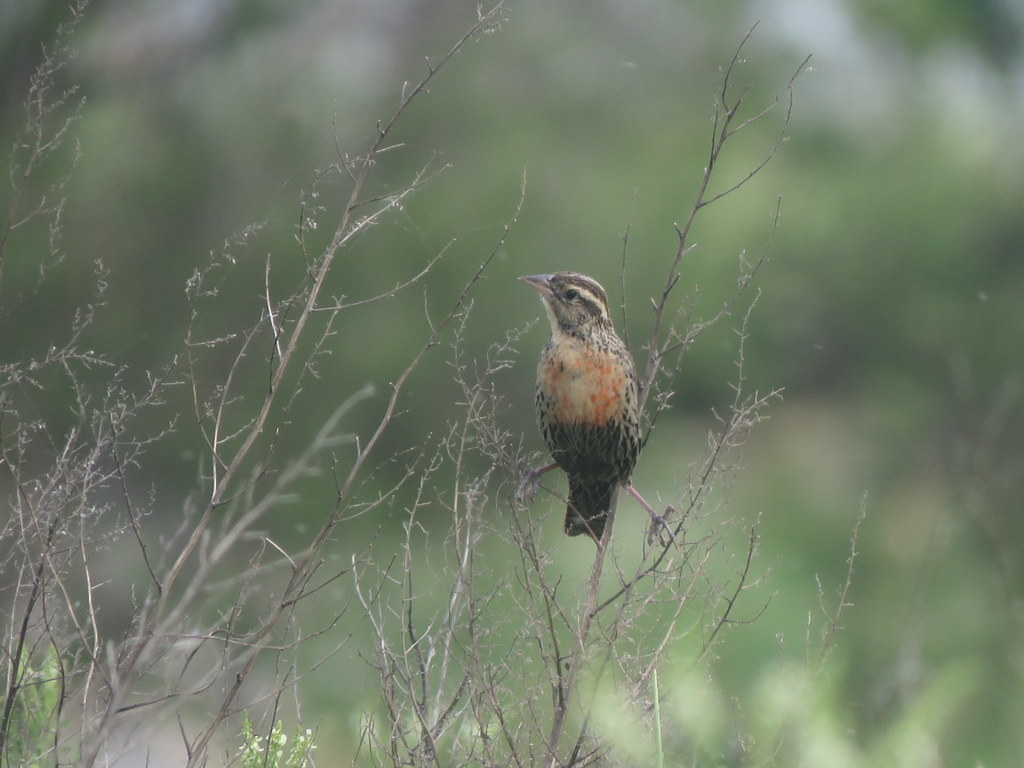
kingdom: Animalia
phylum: Chordata
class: Aves
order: Passeriformes
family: Icteridae
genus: Sturnella
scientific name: Sturnella superciliaris
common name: White-browed blackbird
